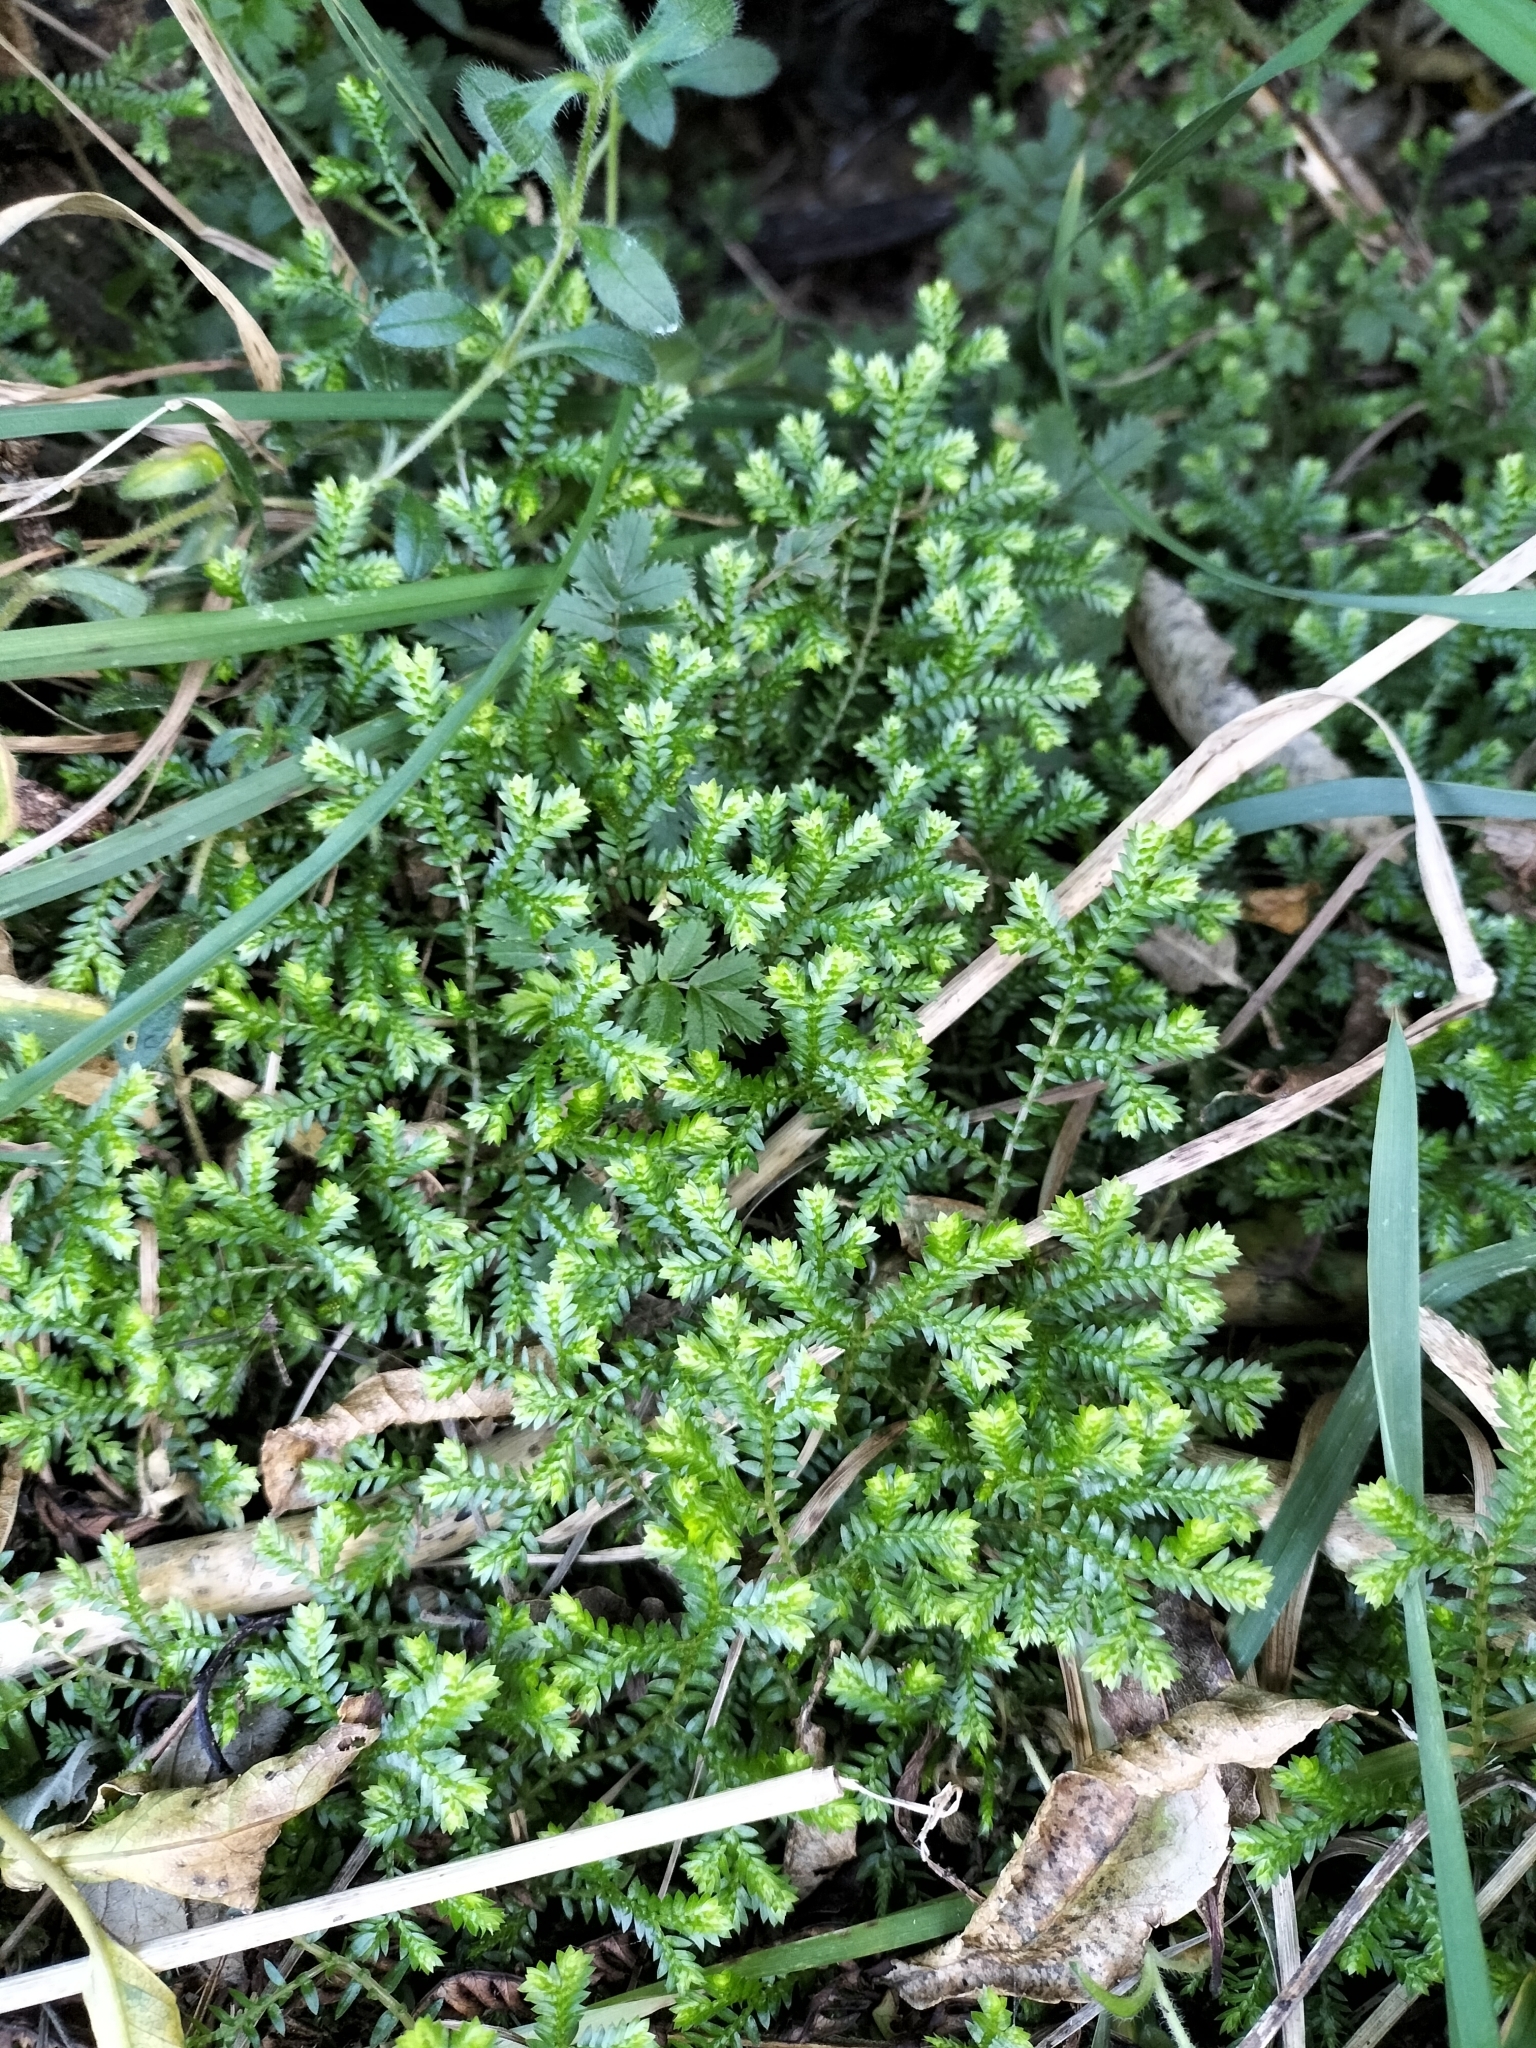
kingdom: Plantae
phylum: Tracheophyta
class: Lycopodiopsida
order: Selaginellales
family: Selaginellaceae
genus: Selaginella
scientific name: Selaginella kraussiana
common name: Krauss' spikemoss
